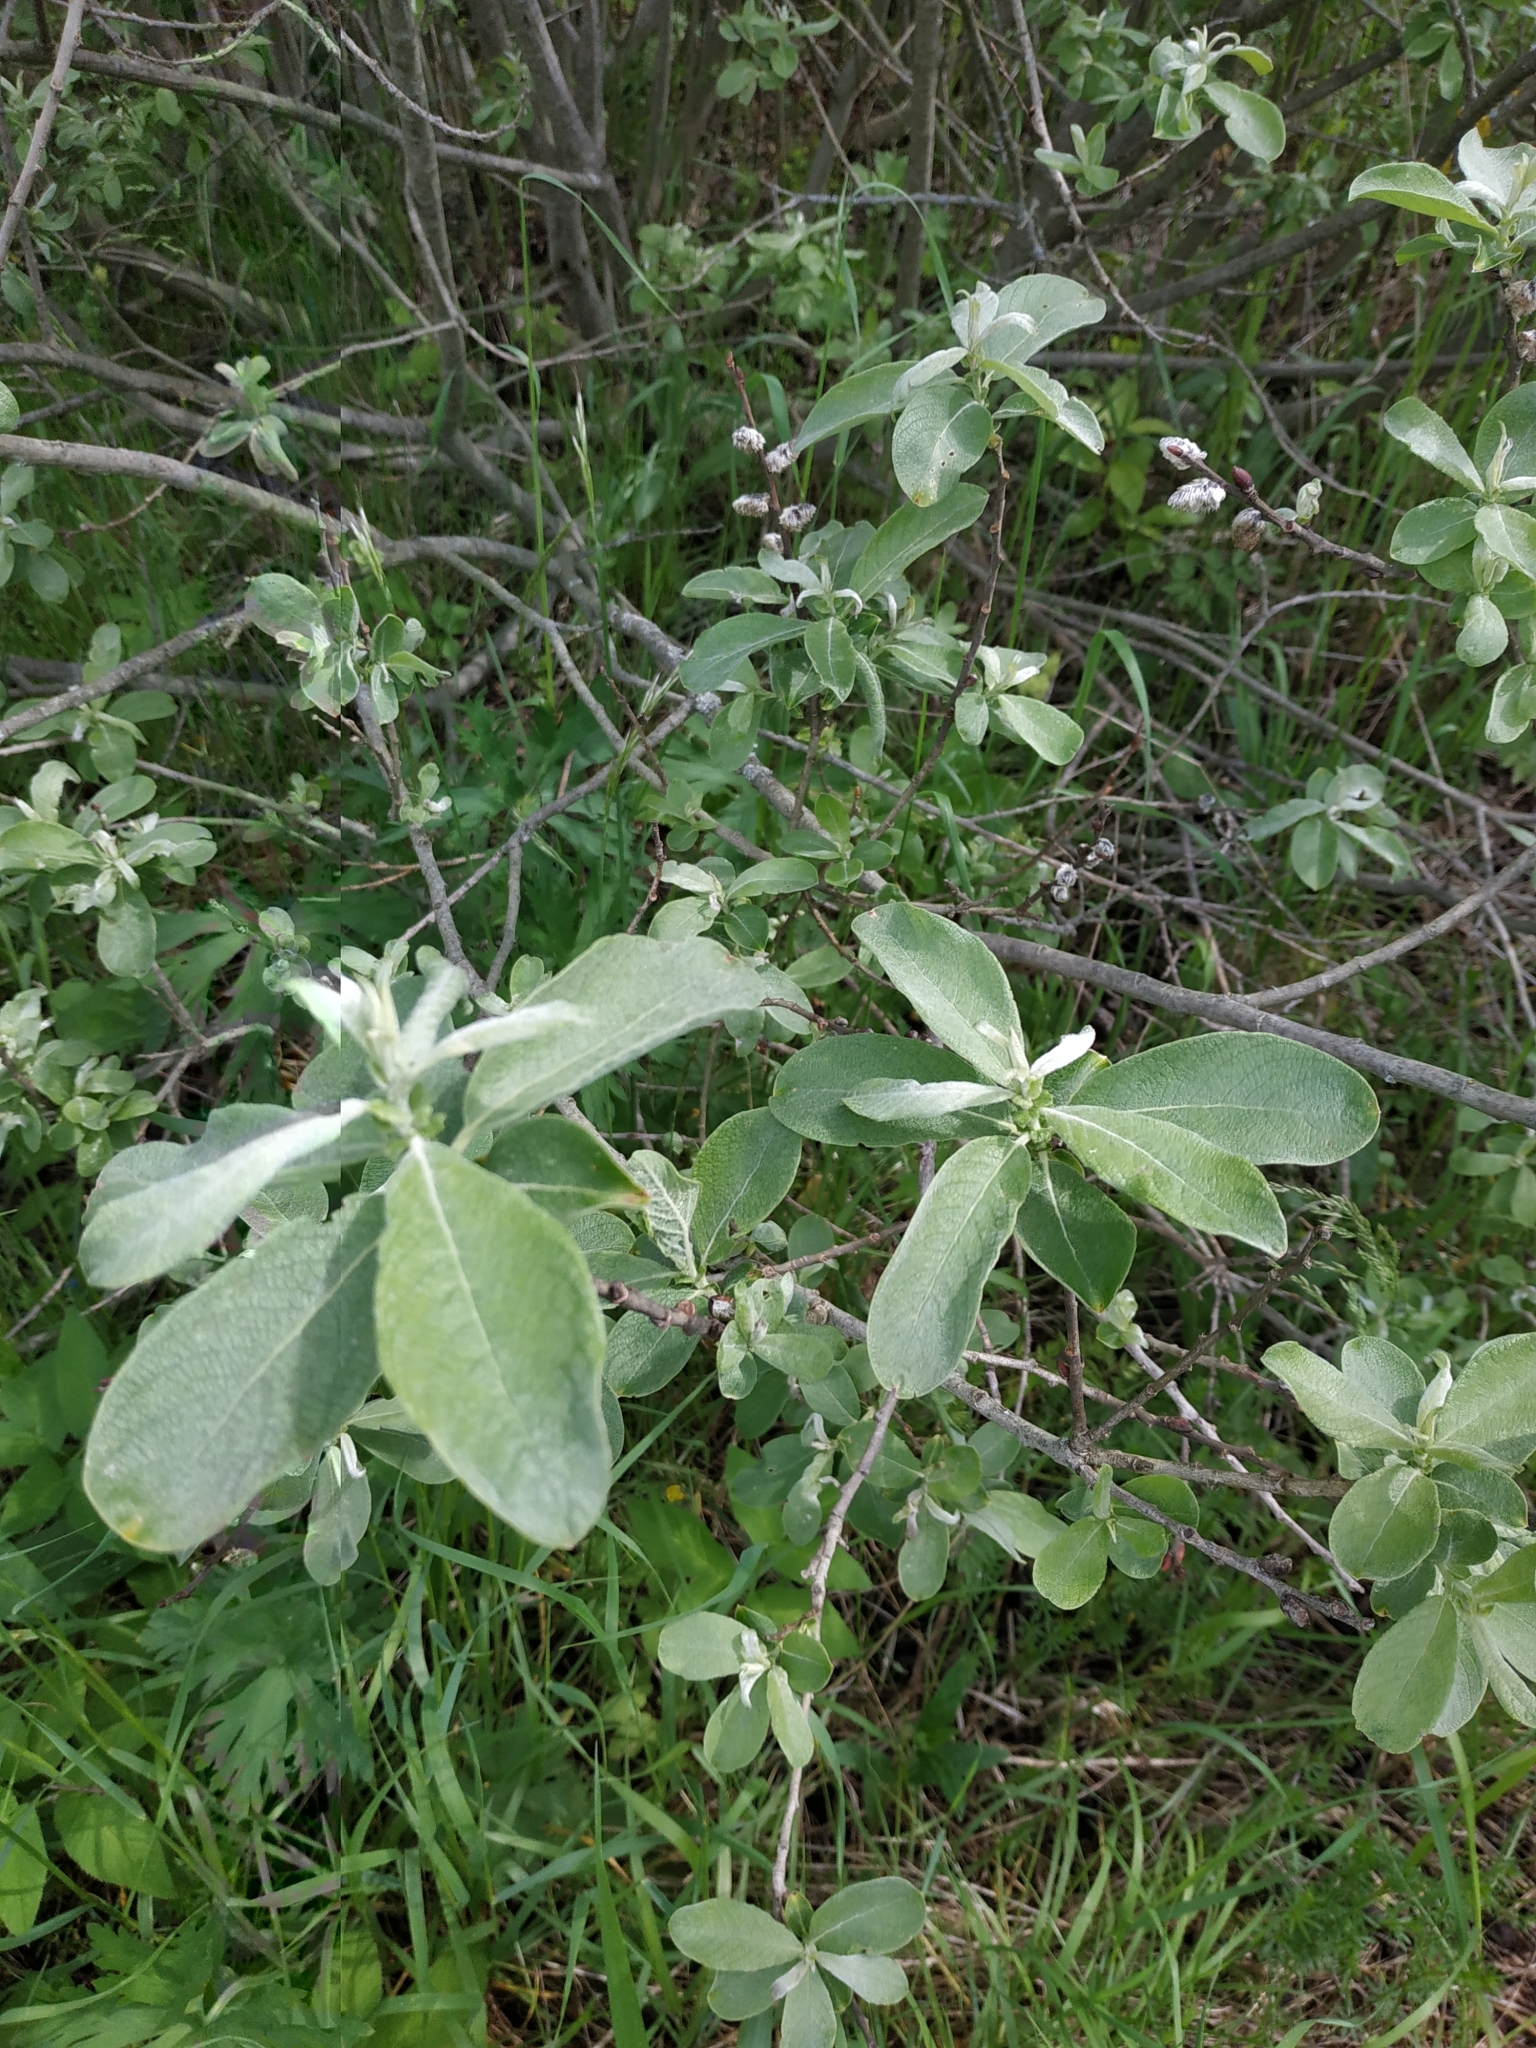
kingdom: Plantae
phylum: Tracheophyta
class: Magnoliopsida
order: Malpighiales
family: Salicaceae
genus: Salix
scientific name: Salix cinerea
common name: Common sallow
